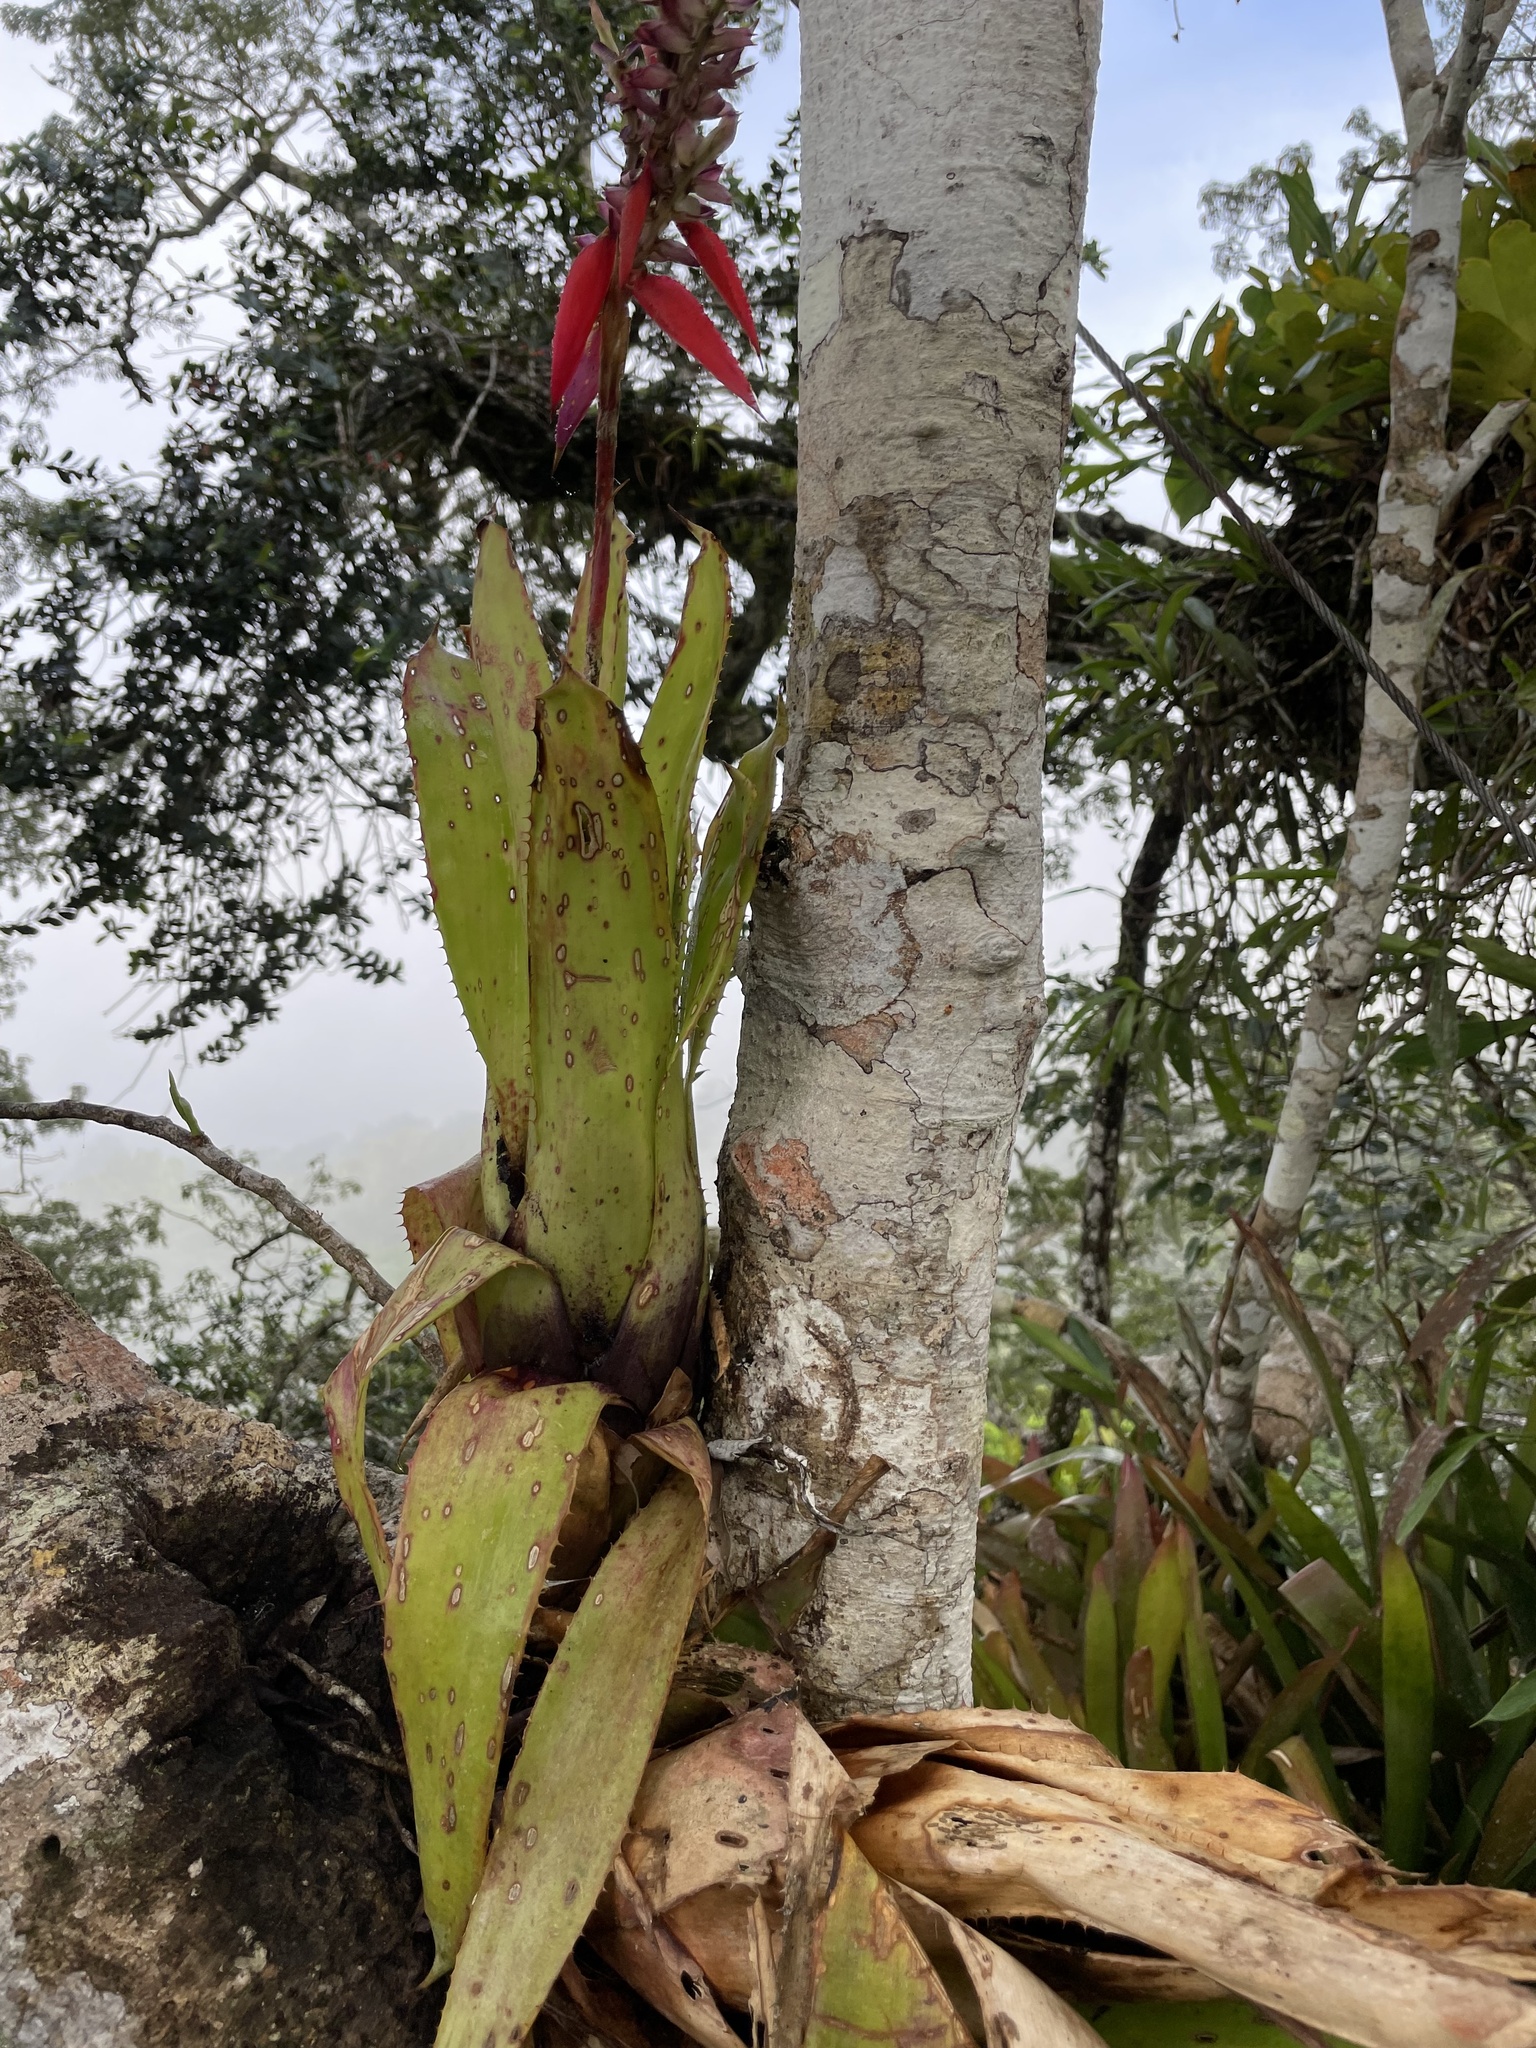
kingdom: Plantae
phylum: Tracheophyta
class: Liliopsida
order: Poales
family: Bromeliaceae
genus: Aechmea
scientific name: Aechmea tillandsioides
